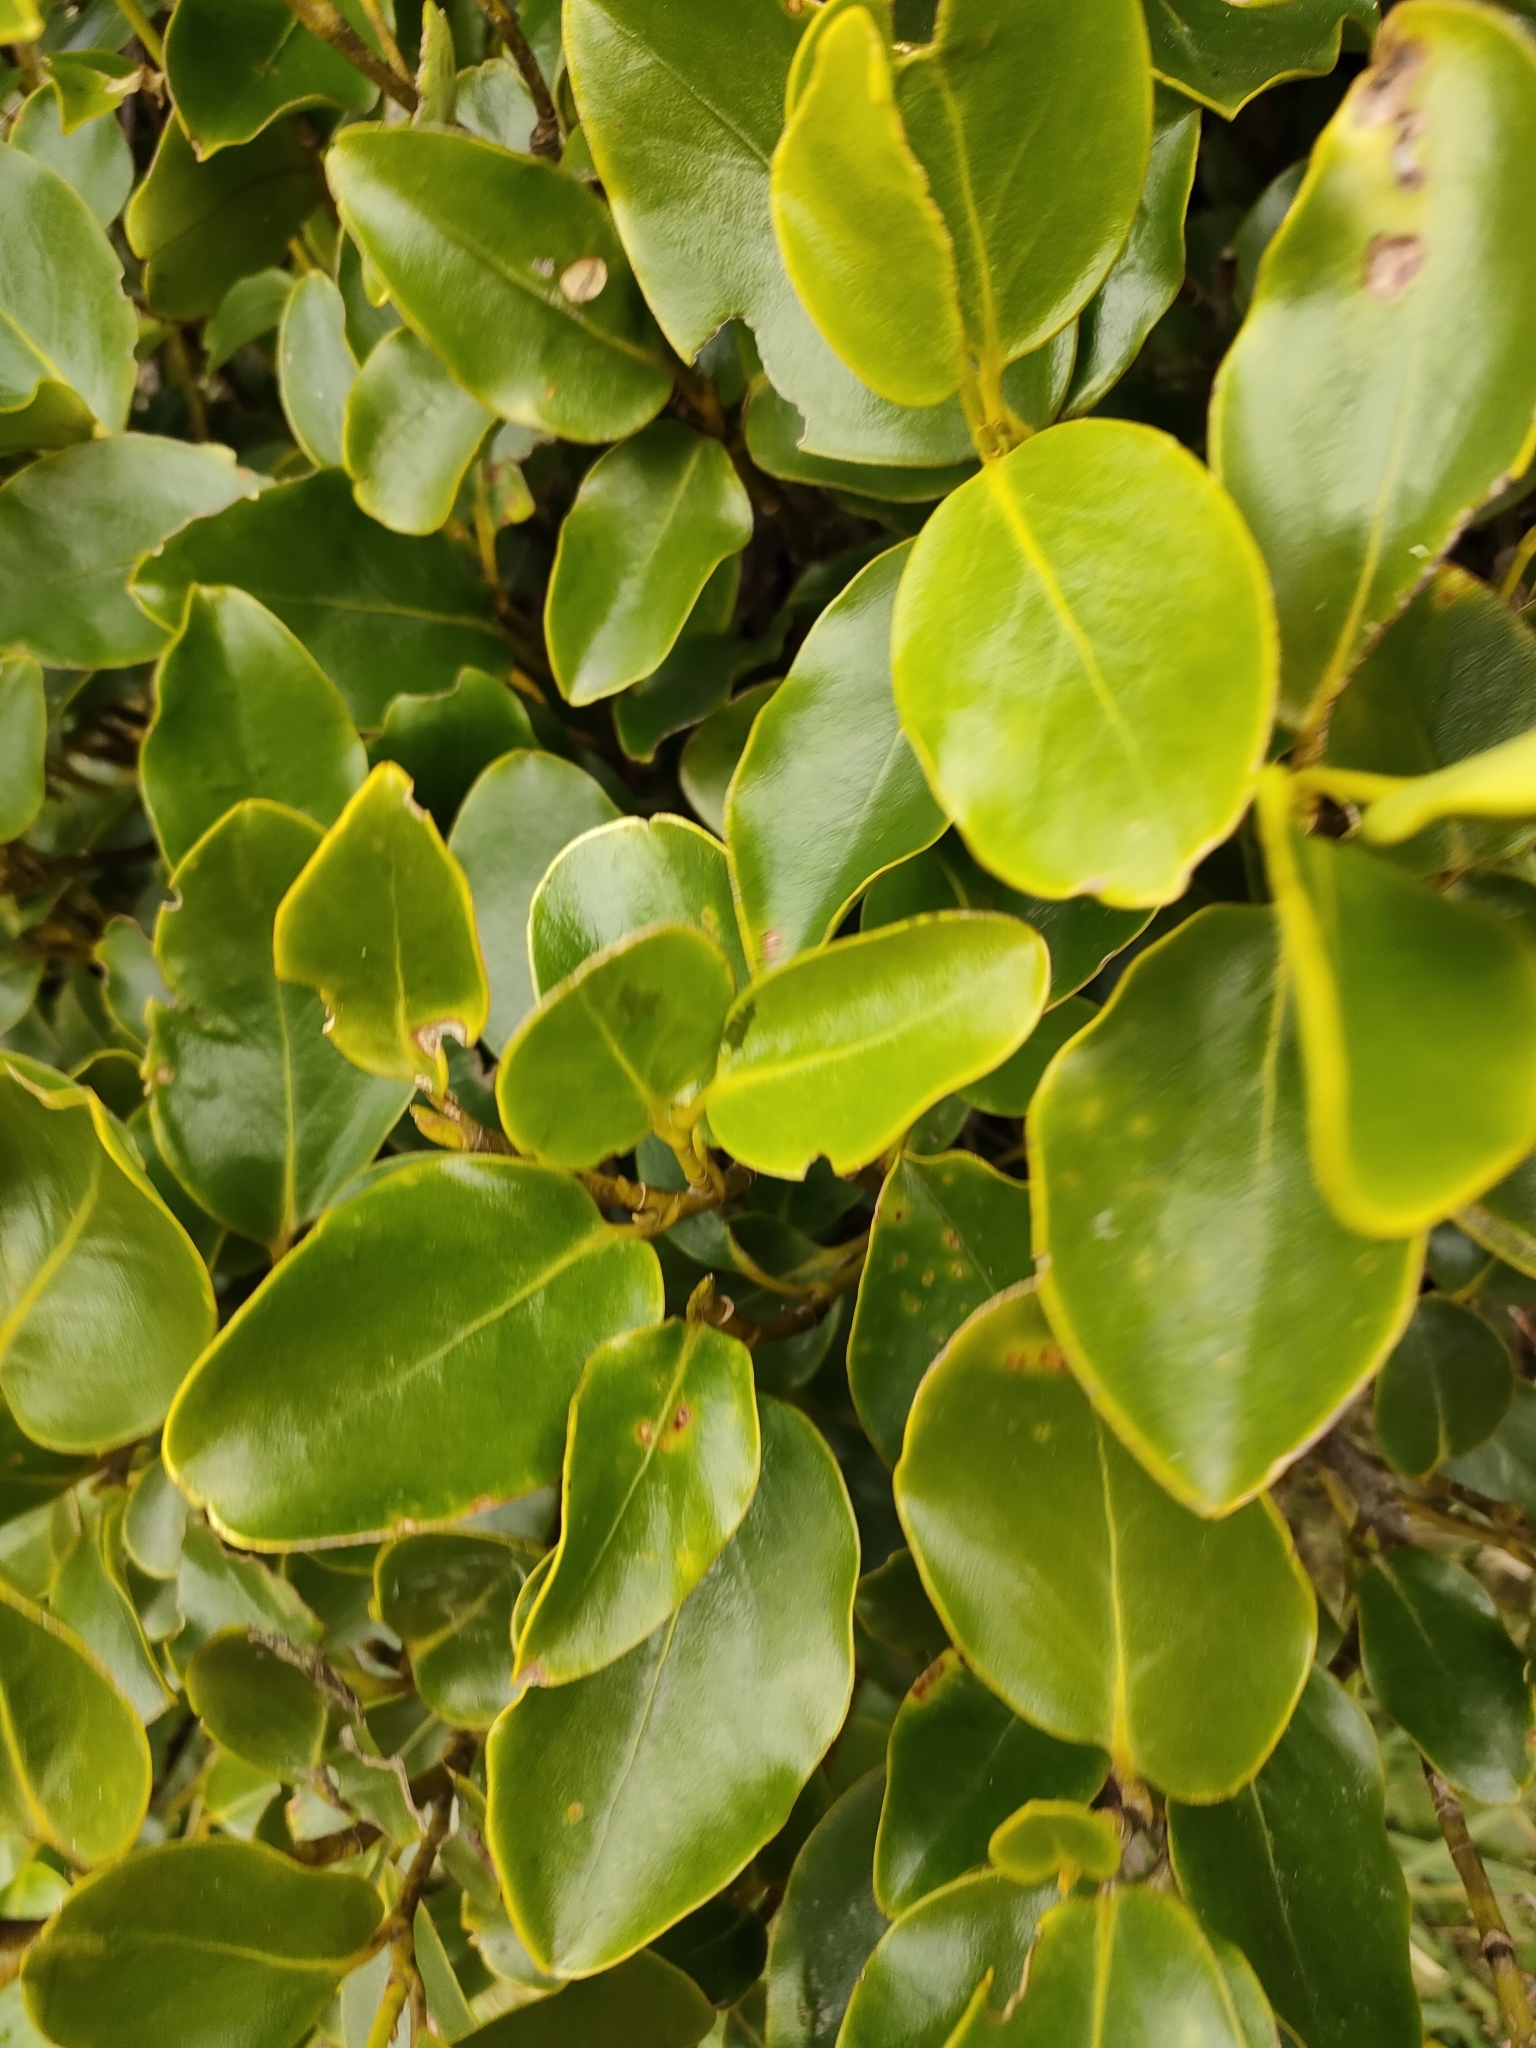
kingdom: Plantae
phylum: Tracheophyta
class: Magnoliopsida
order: Apiales
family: Griseliniaceae
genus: Griselinia
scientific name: Griselinia littoralis
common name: New zealand broadleaf
